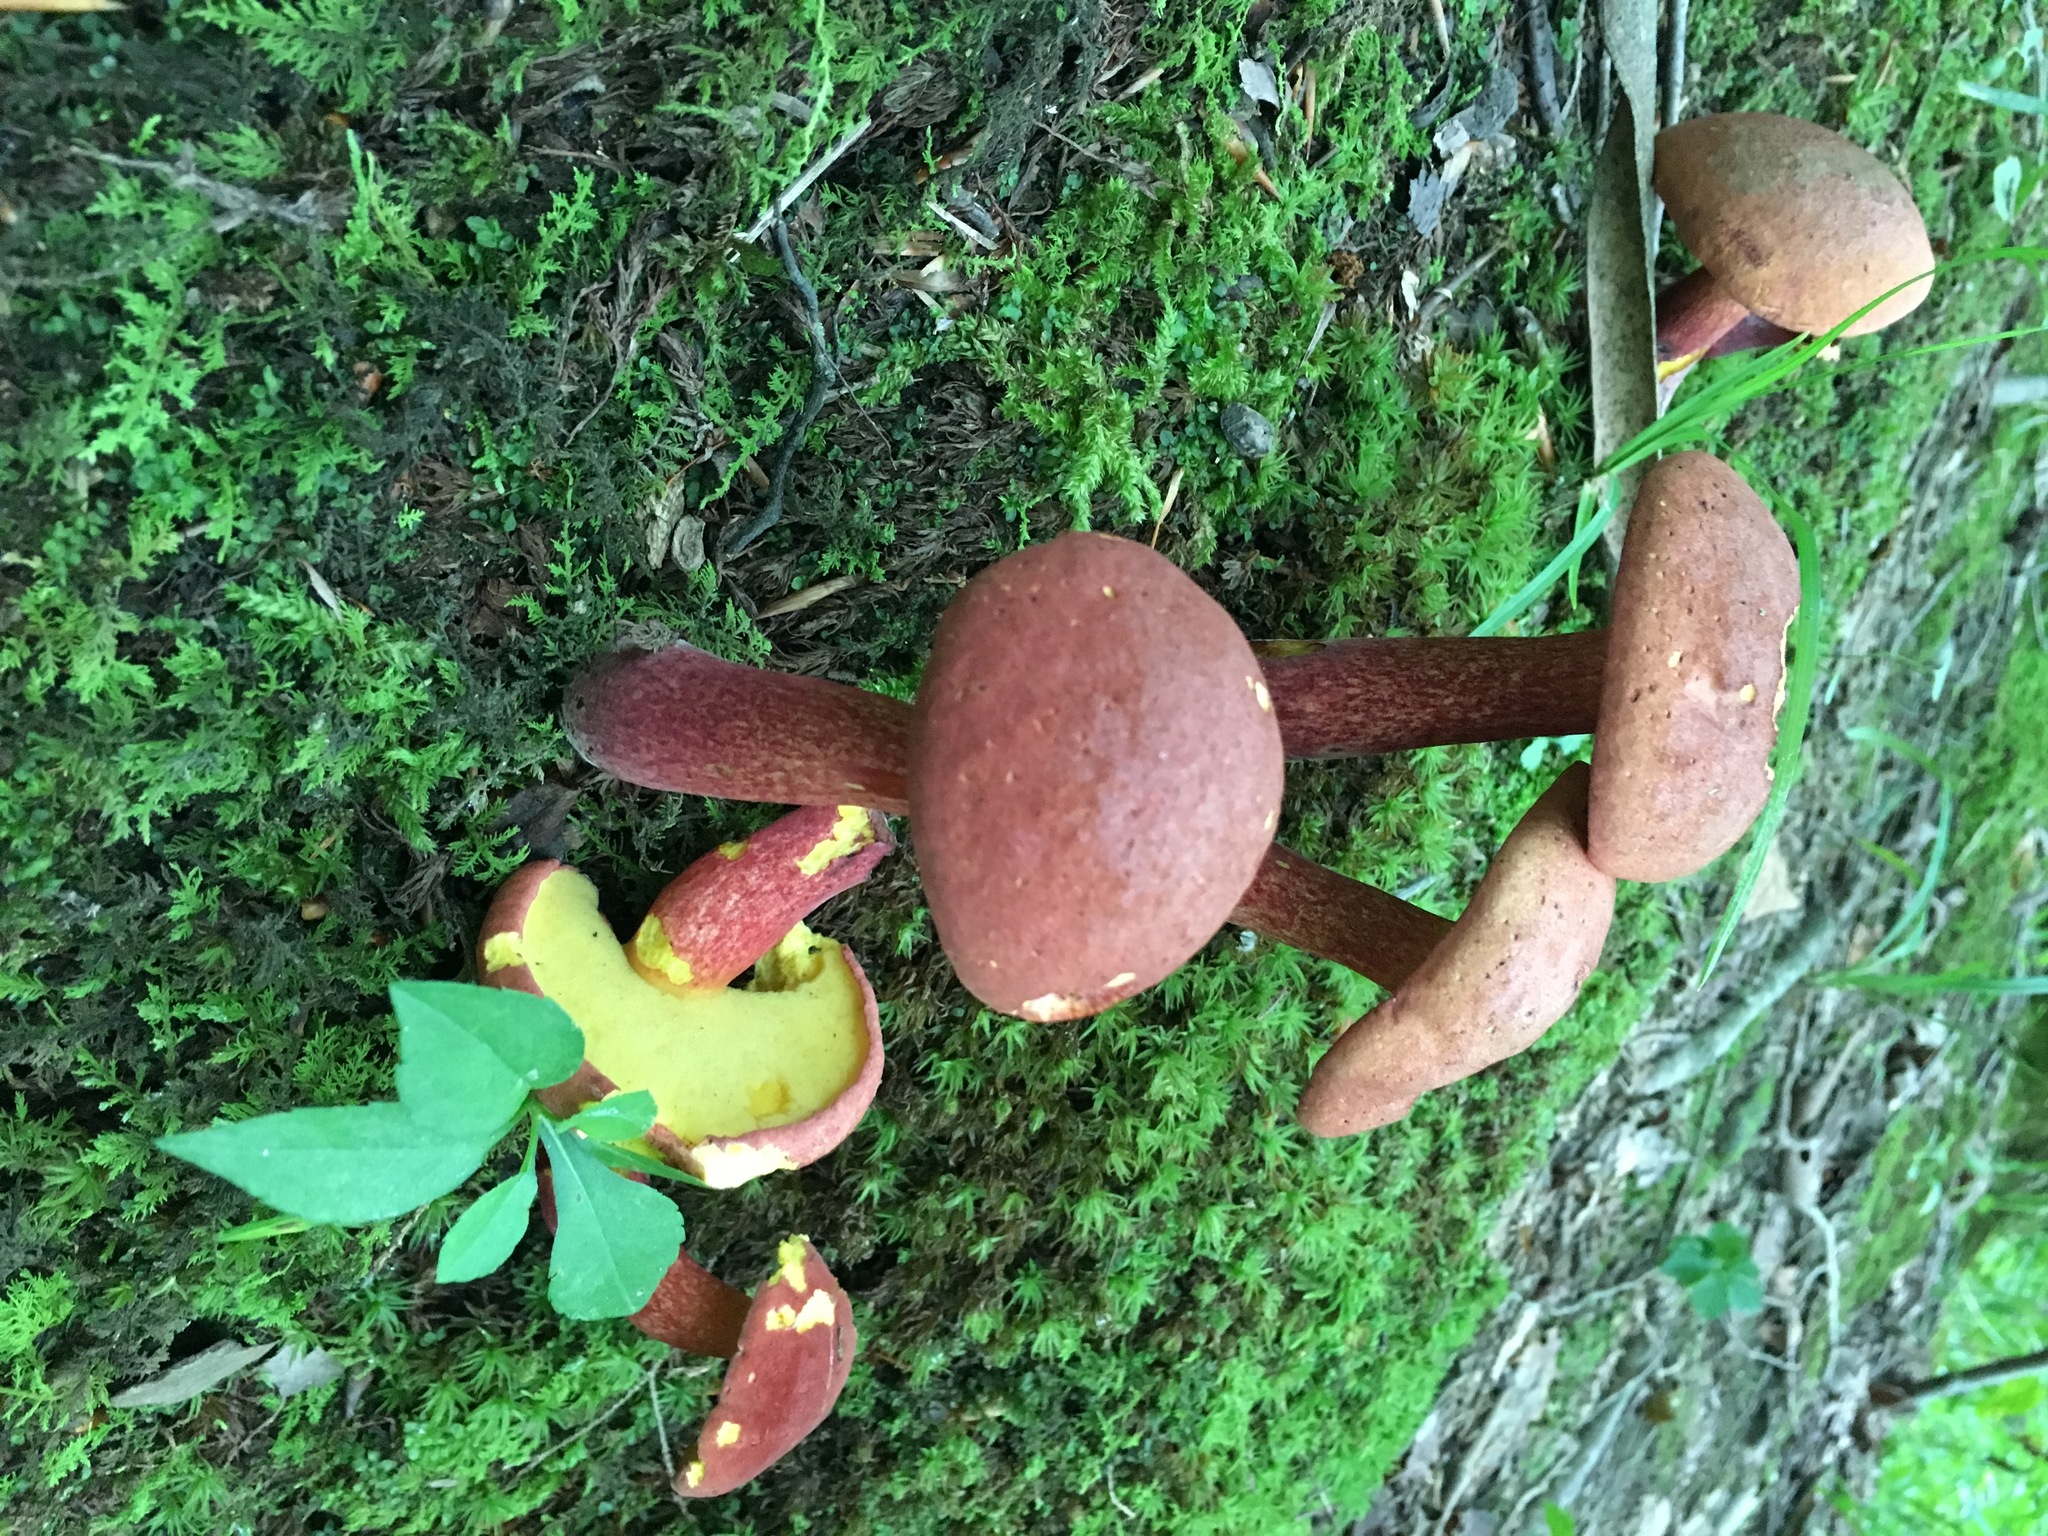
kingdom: Fungi
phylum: Basidiomycota
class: Agaricomycetes
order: Boletales
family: Boletaceae
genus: Baorangia
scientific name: Baorangia bicolor
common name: Two-colored bolete
